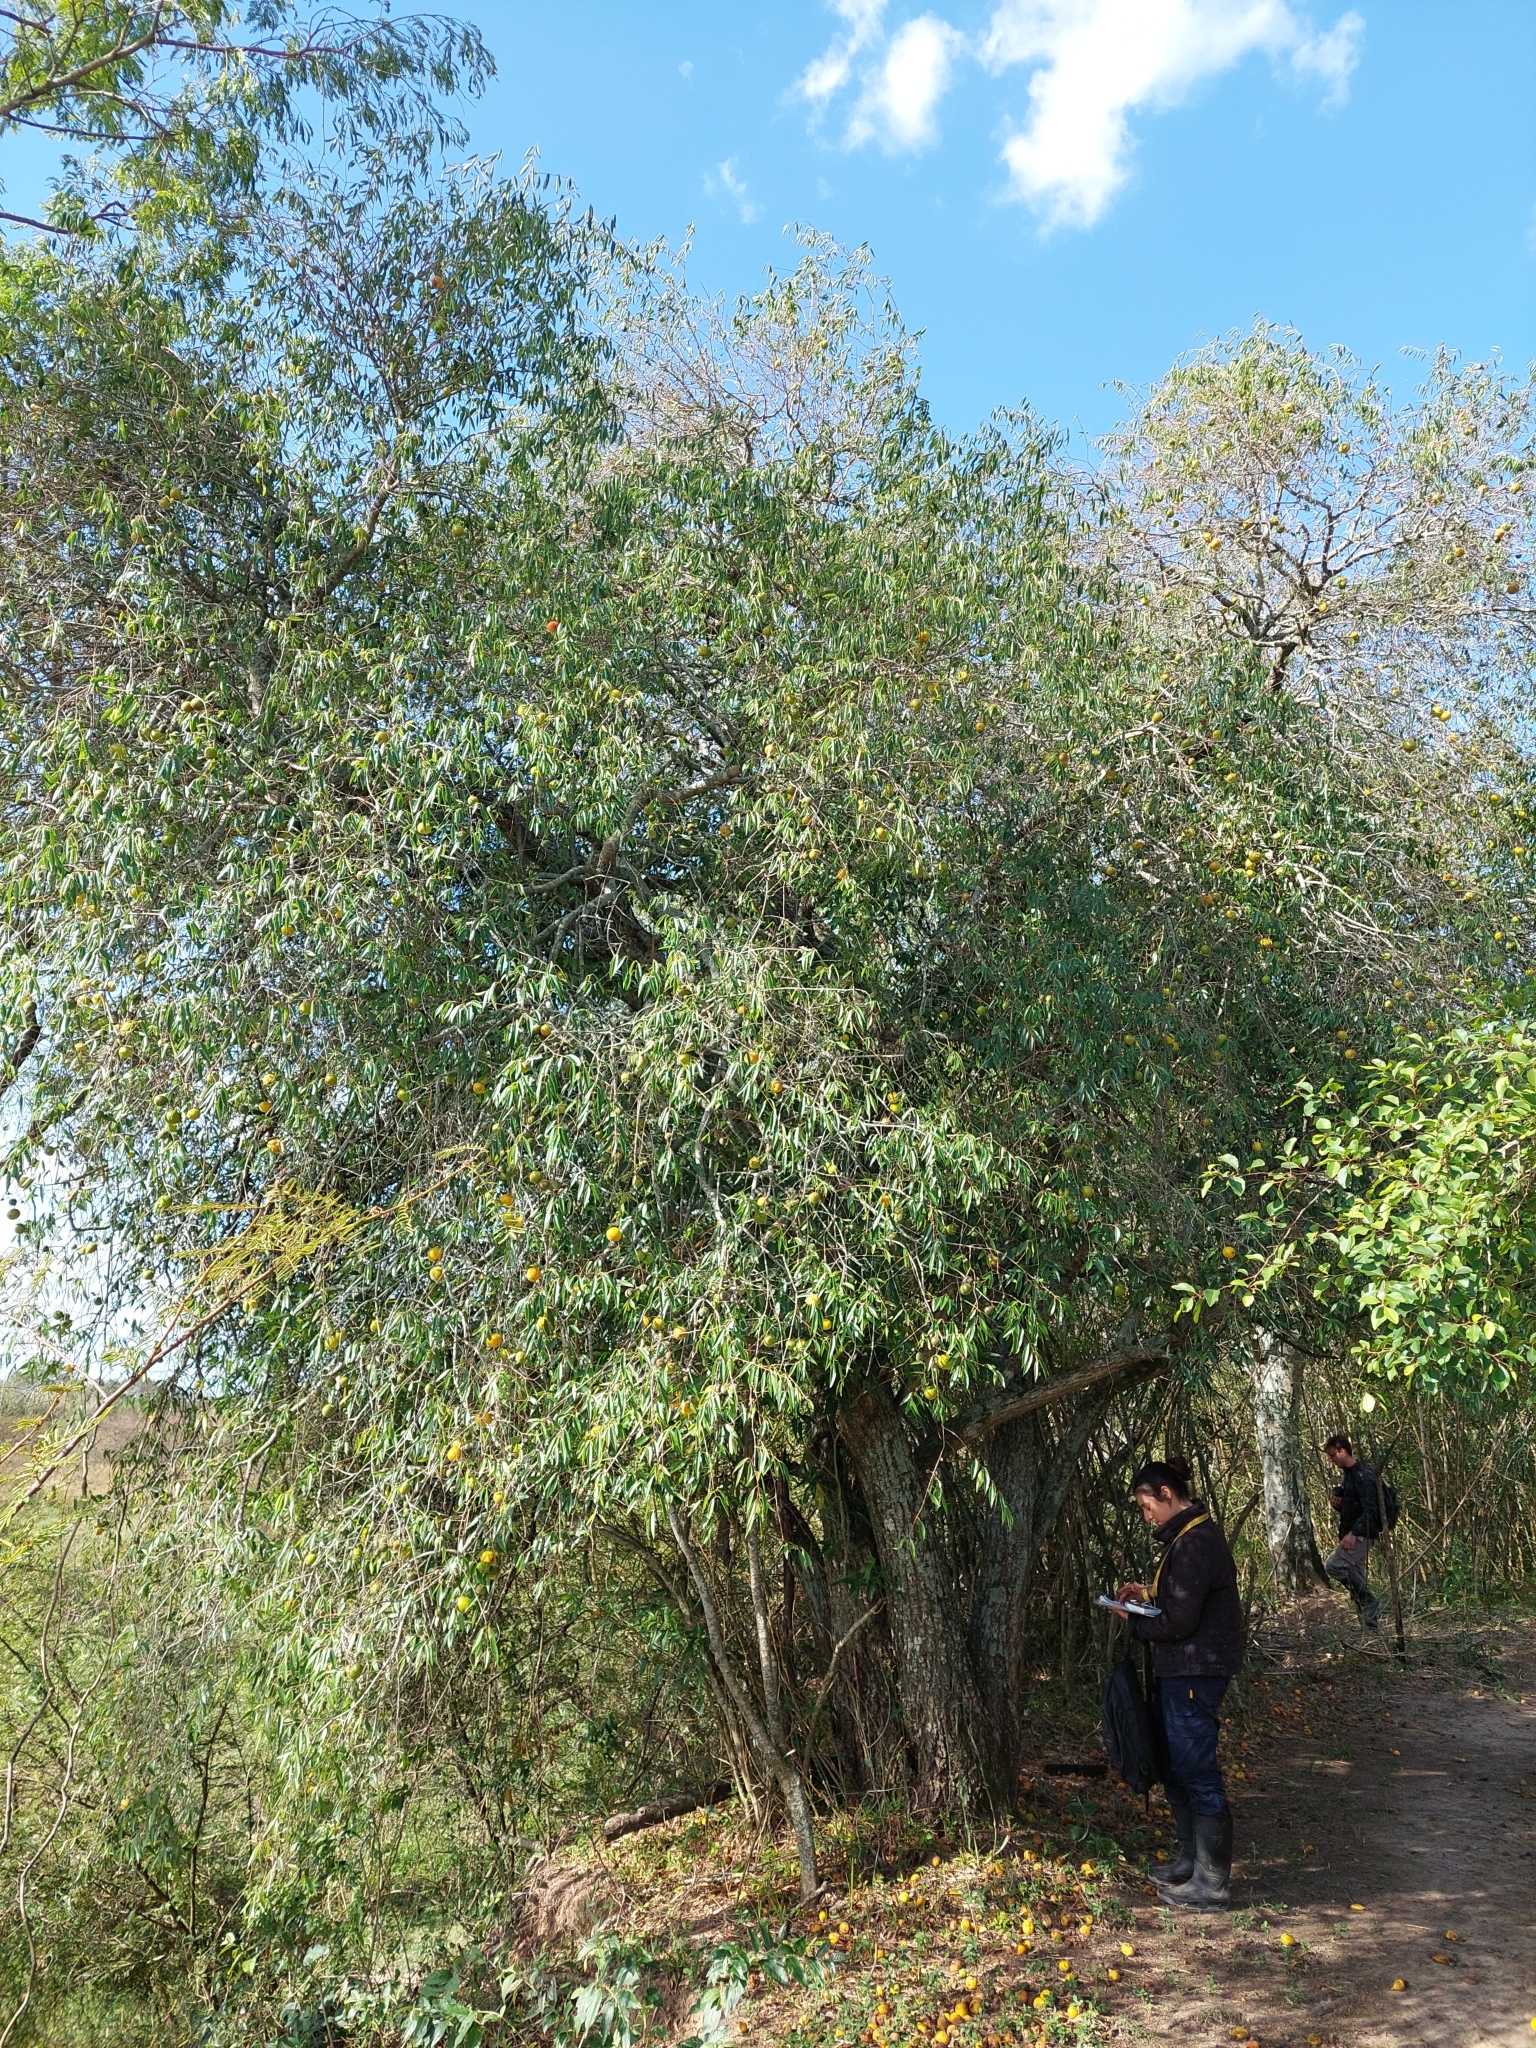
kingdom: Plantae
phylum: Tracheophyta
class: Magnoliopsida
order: Myrtales
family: Myrtaceae
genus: Eugenia
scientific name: Eugenia myrcianthes
